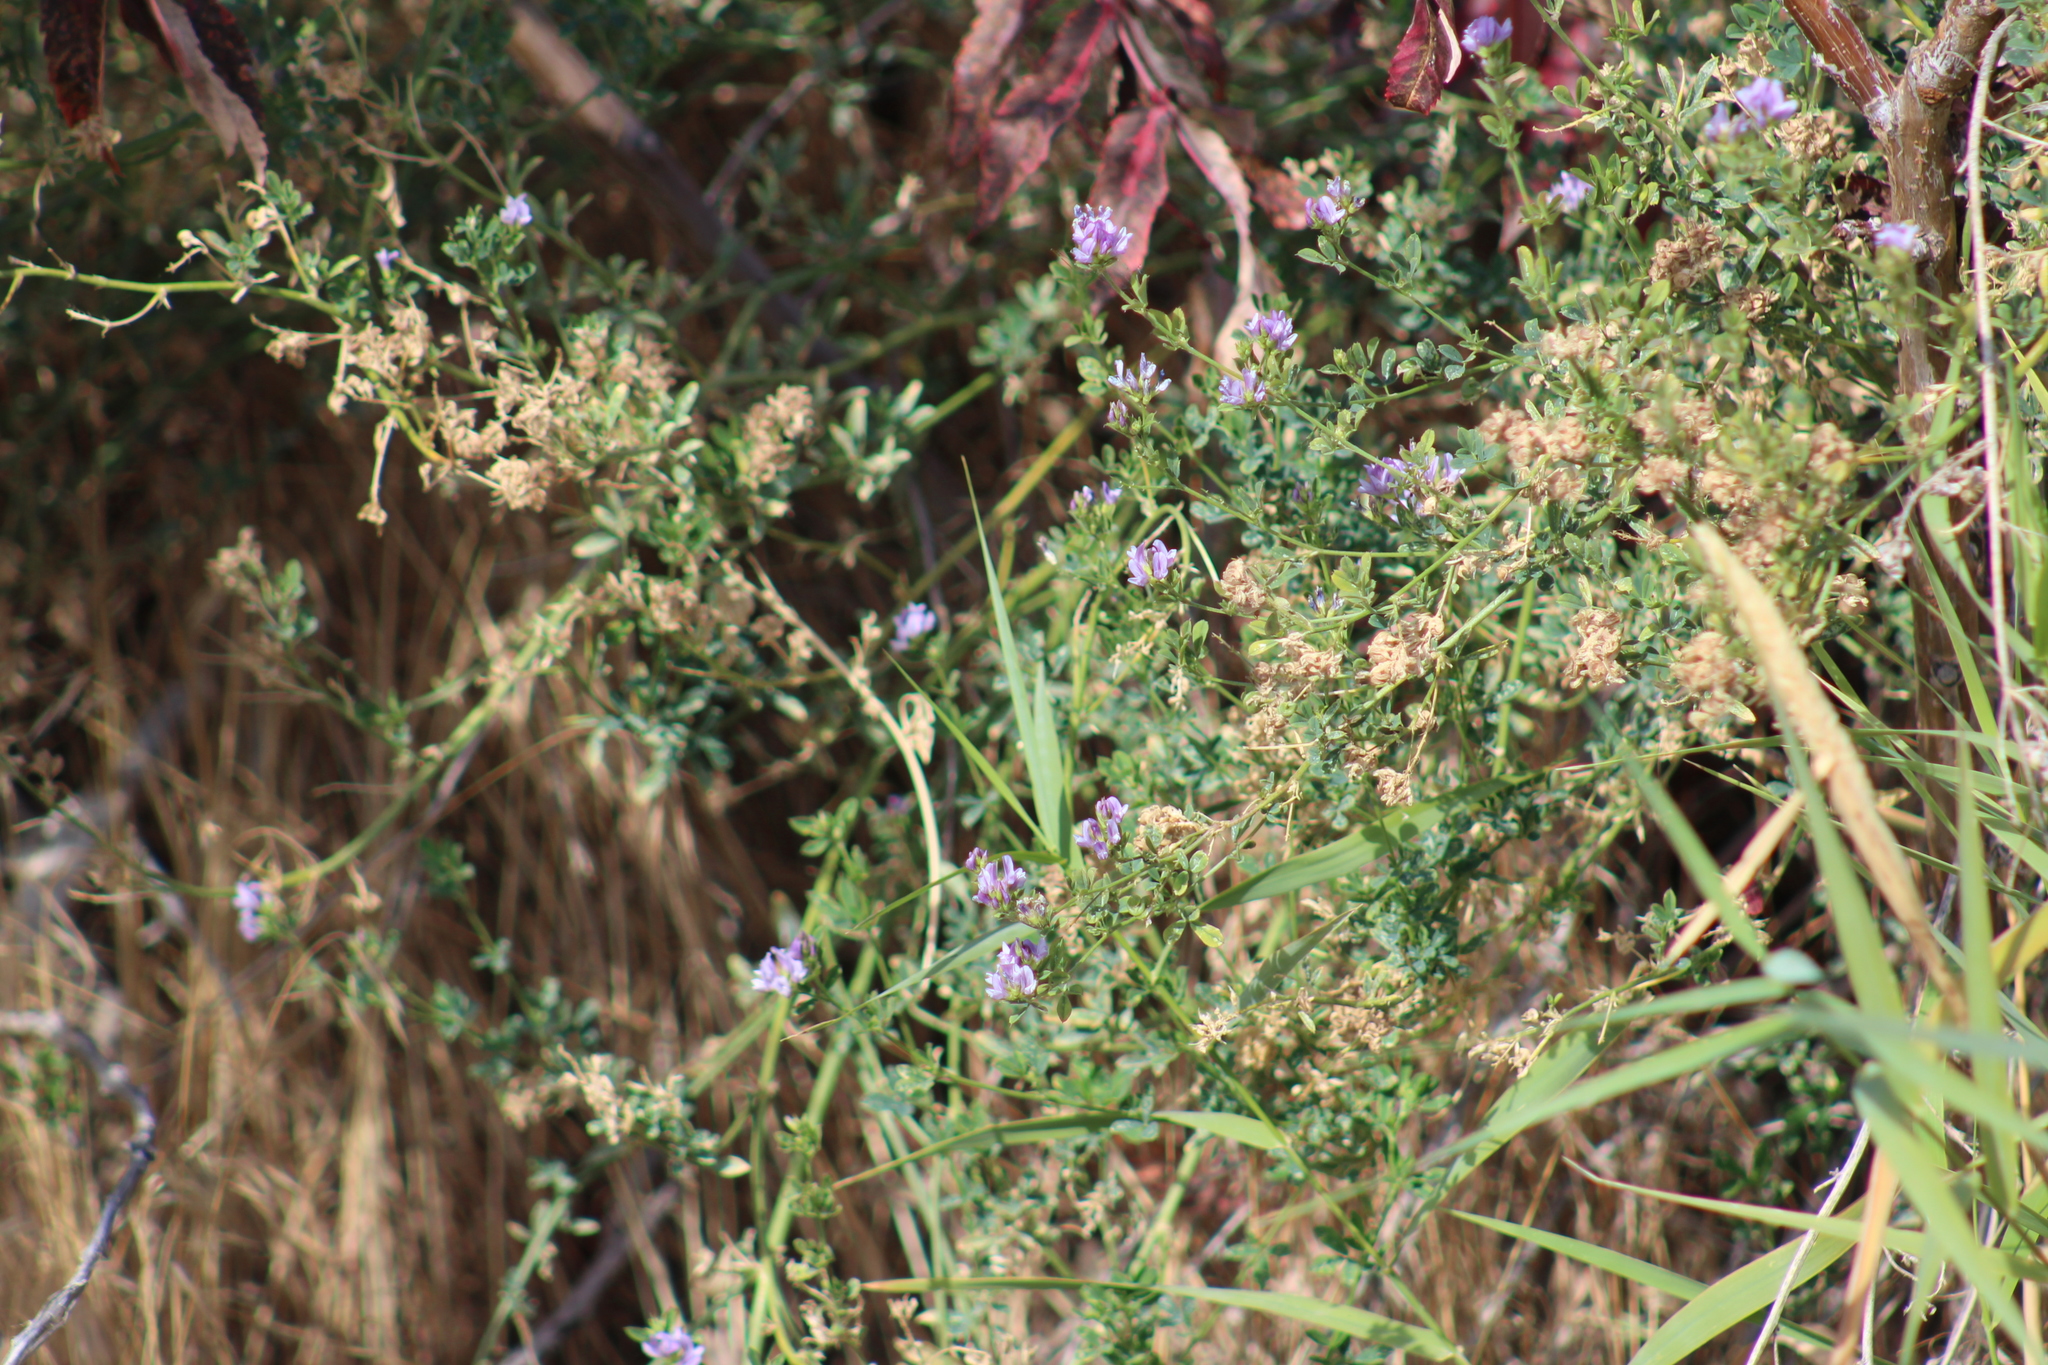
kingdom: Plantae
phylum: Tracheophyta
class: Magnoliopsida
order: Fabales
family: Fabaceae
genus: Medicago
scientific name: Medicago sativa
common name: Alfalfa
